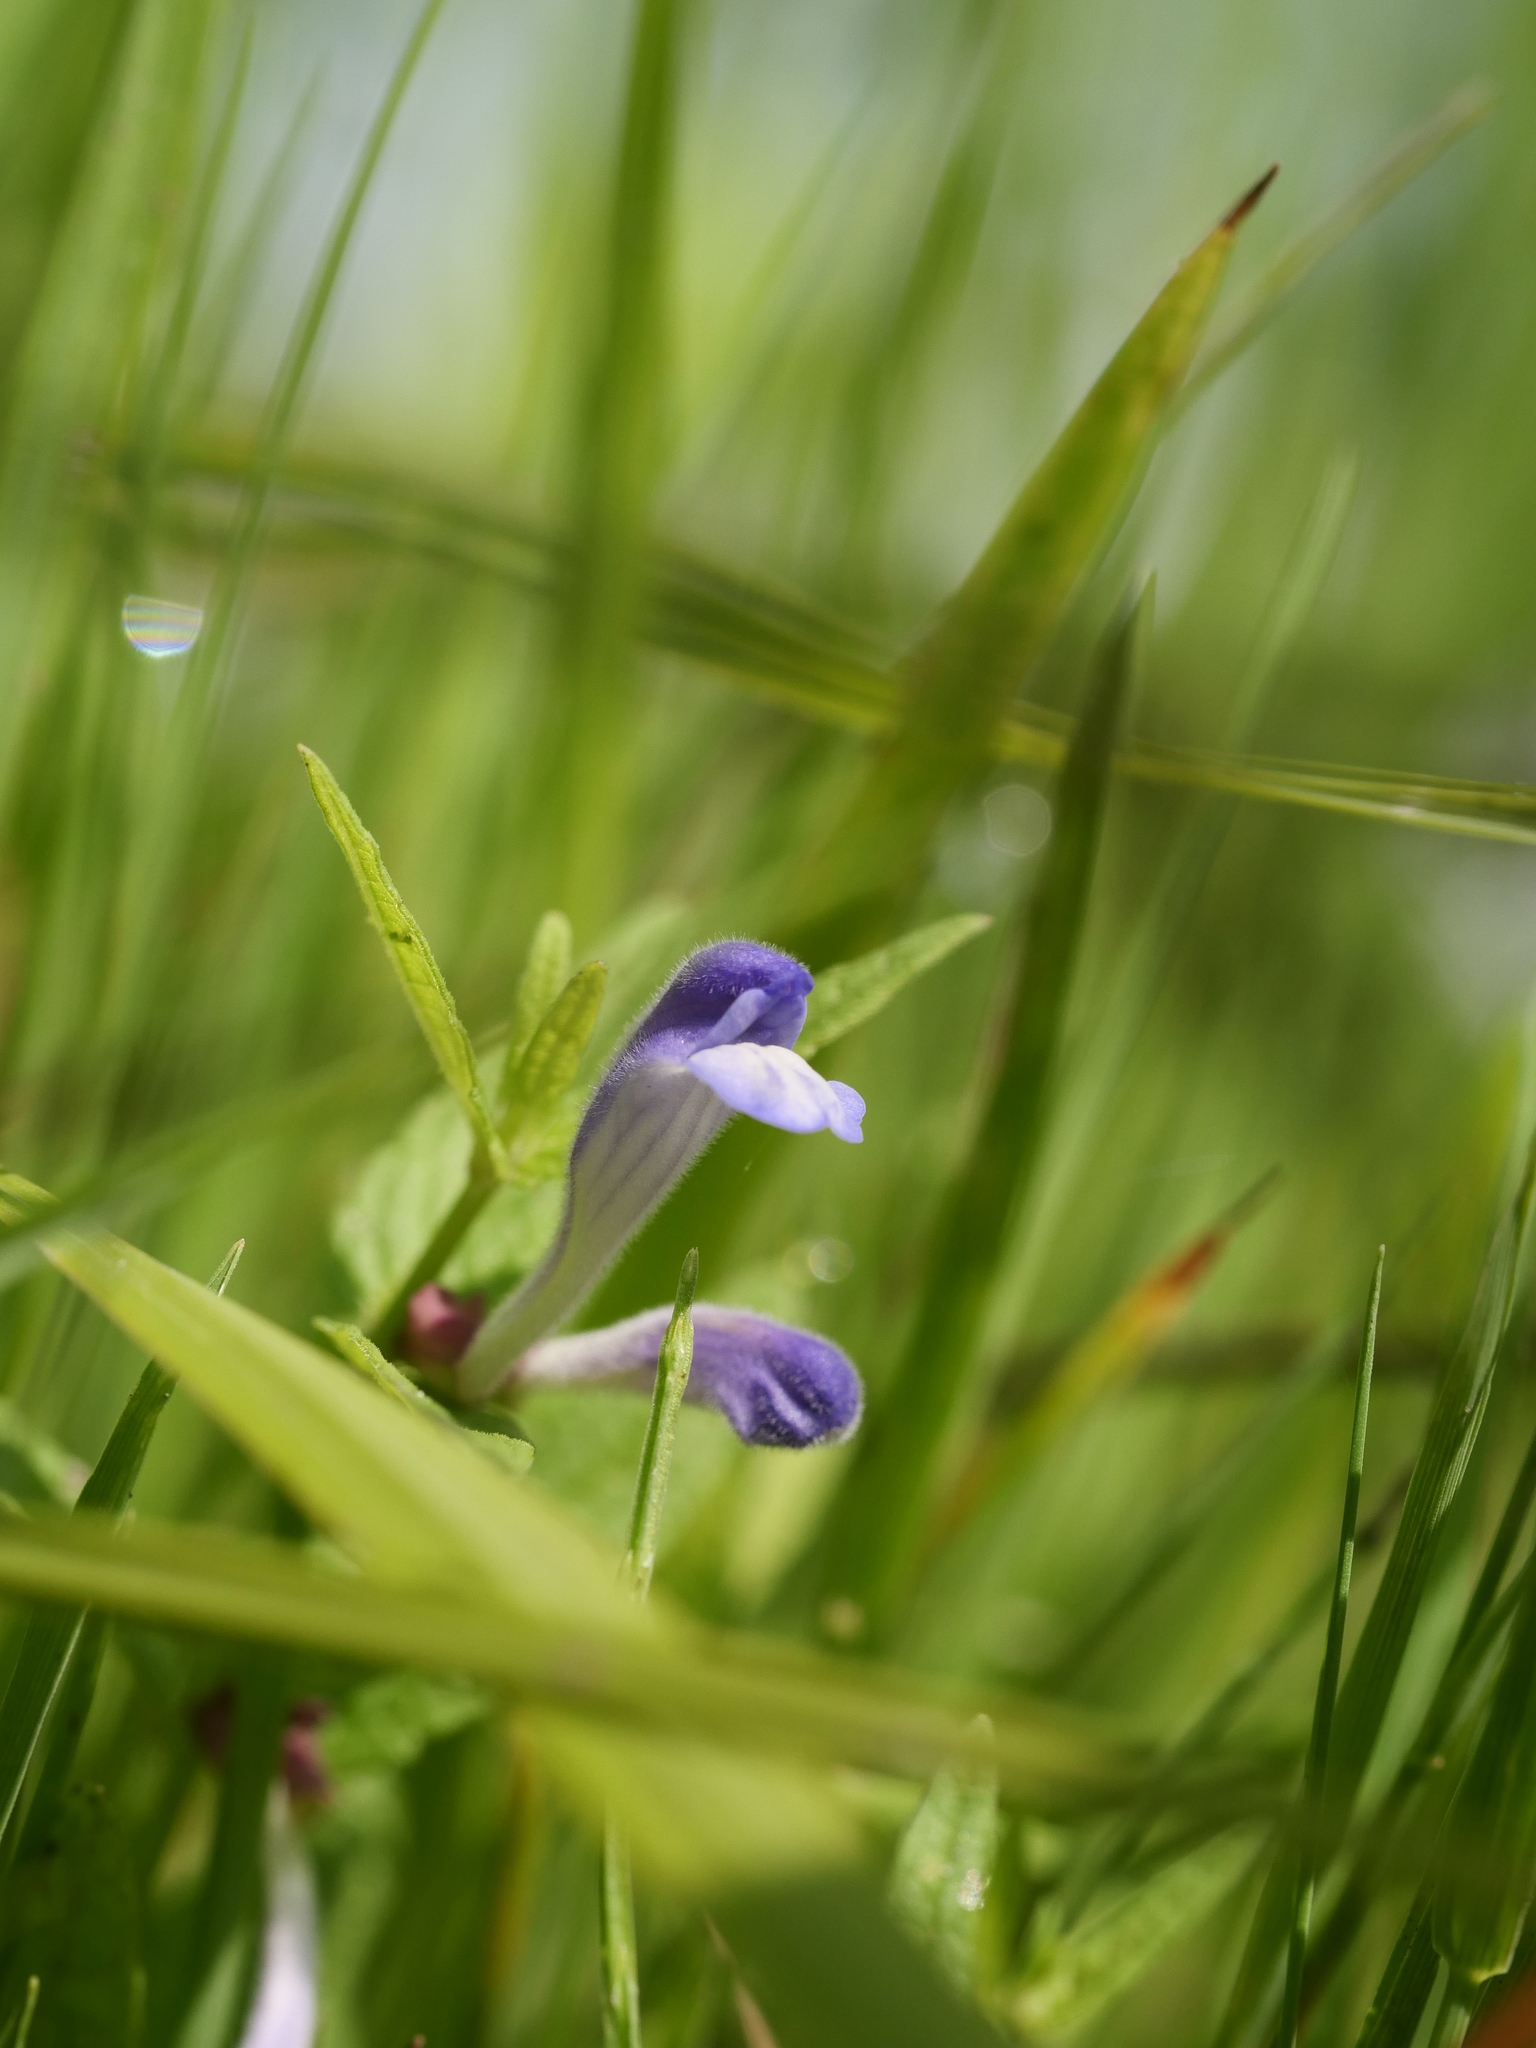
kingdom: Plantae
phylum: Tracheophyta
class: Magnoliopsida
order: Lamiales
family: Lamiaceae
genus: Scutellaria
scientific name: Scutellaria galericulata
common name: Skullcap
